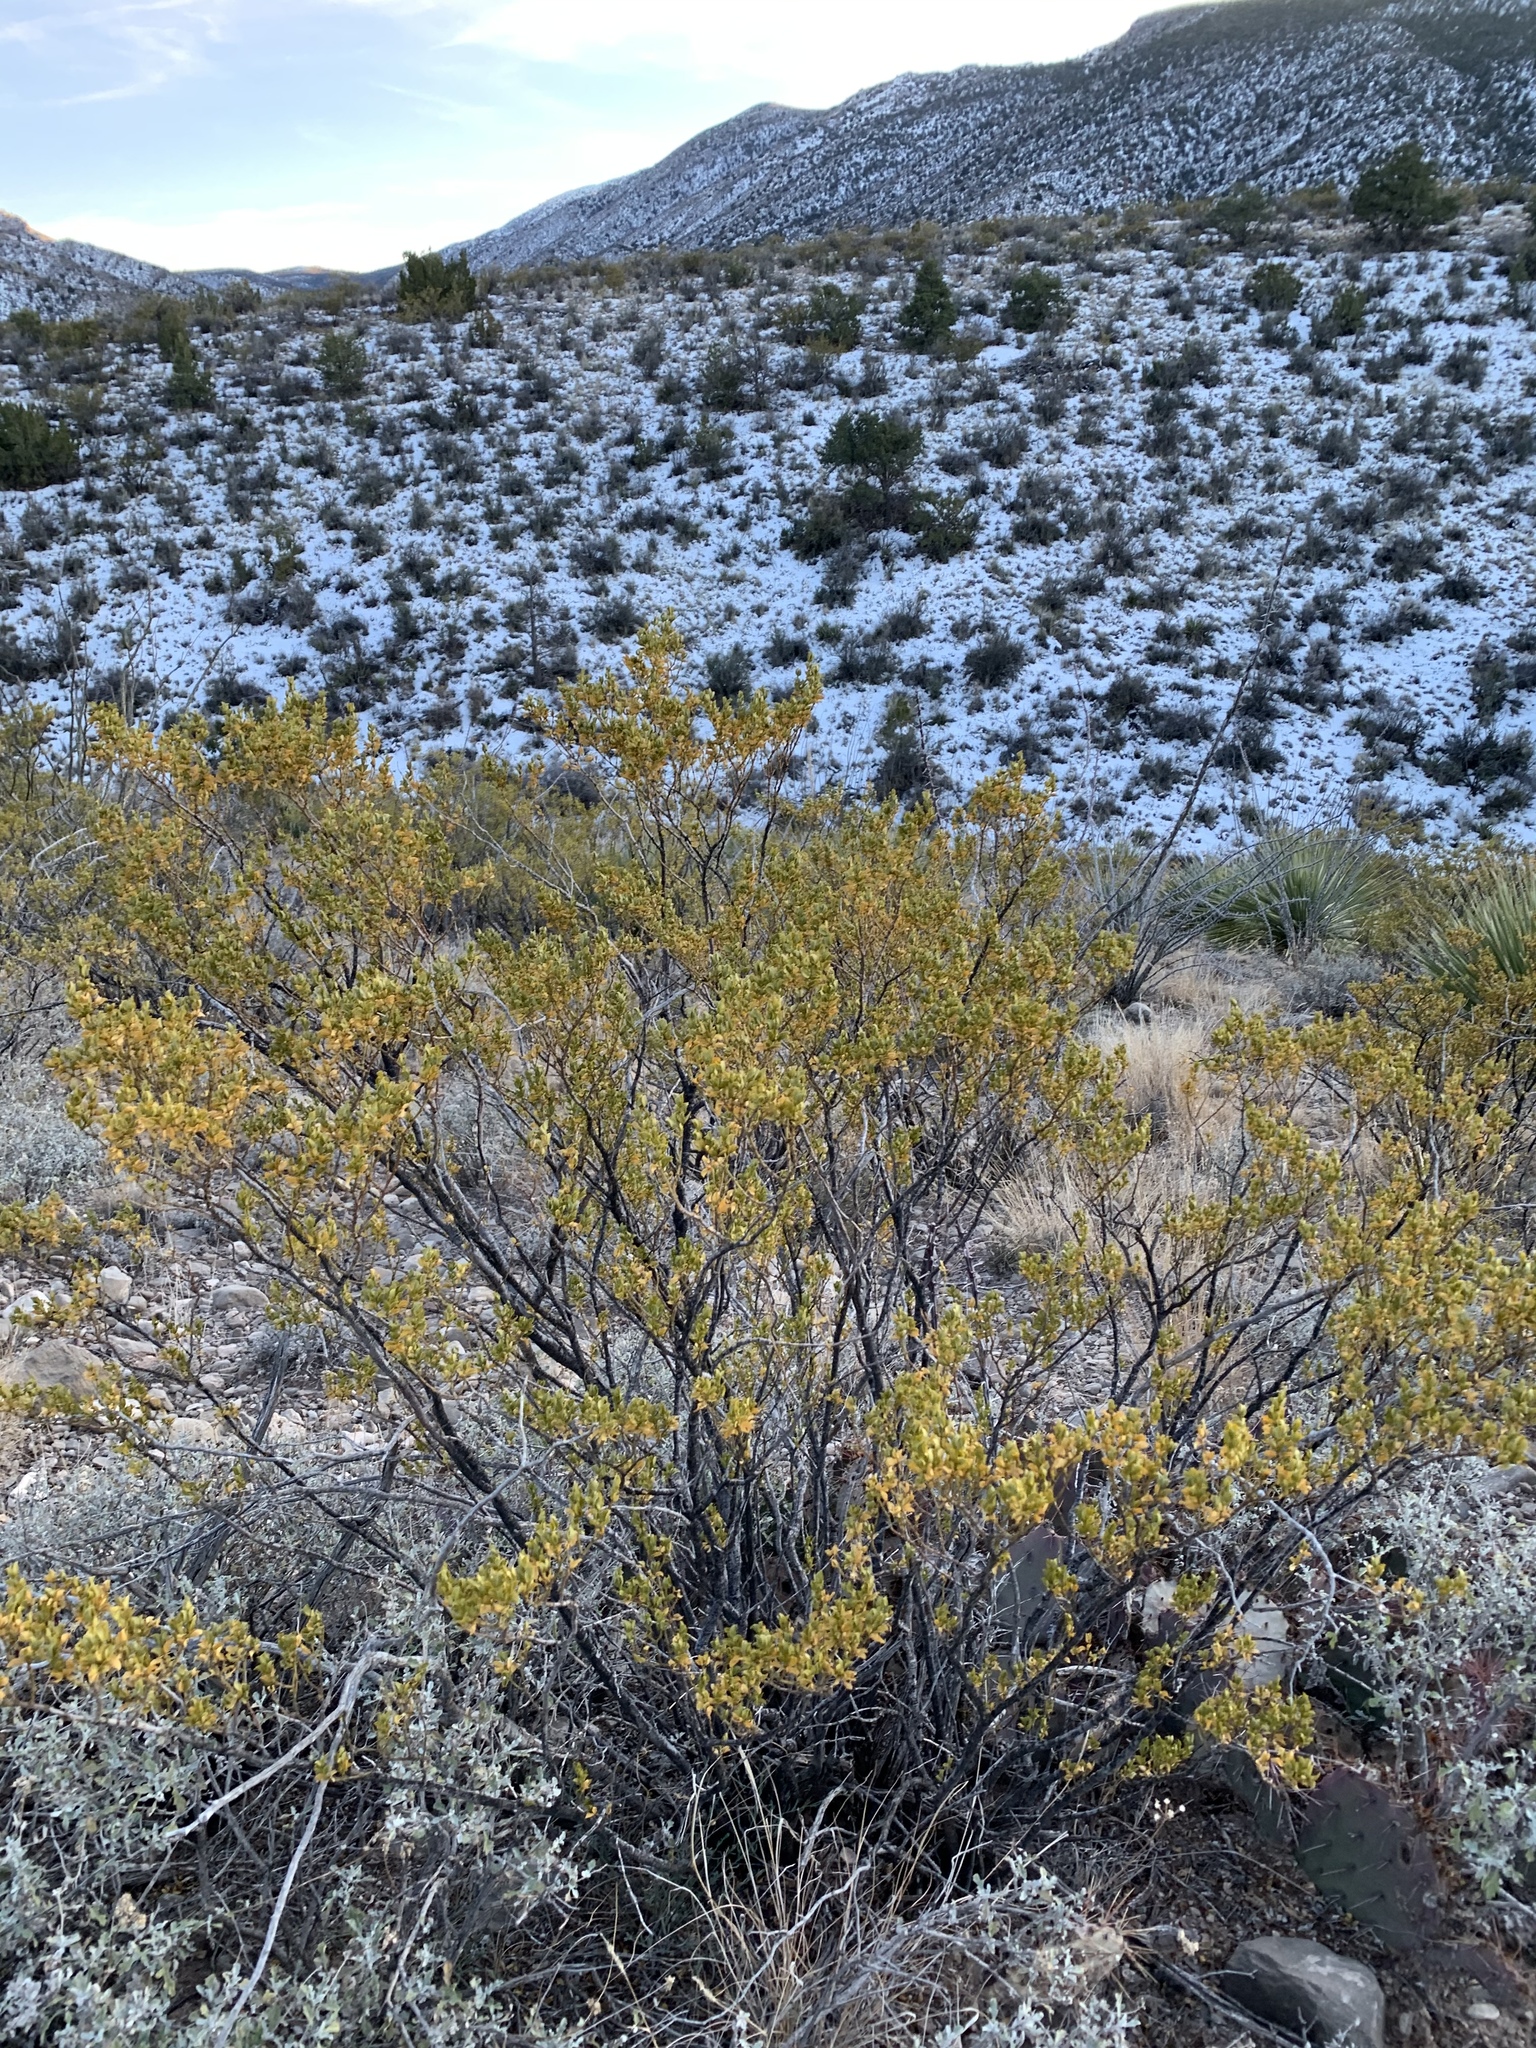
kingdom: Plantae
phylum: Tracheophyta
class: Magnoliopsida
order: Zygophyllales
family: Zygophyllaceae
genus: Larrea
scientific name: Larrea tridentata
